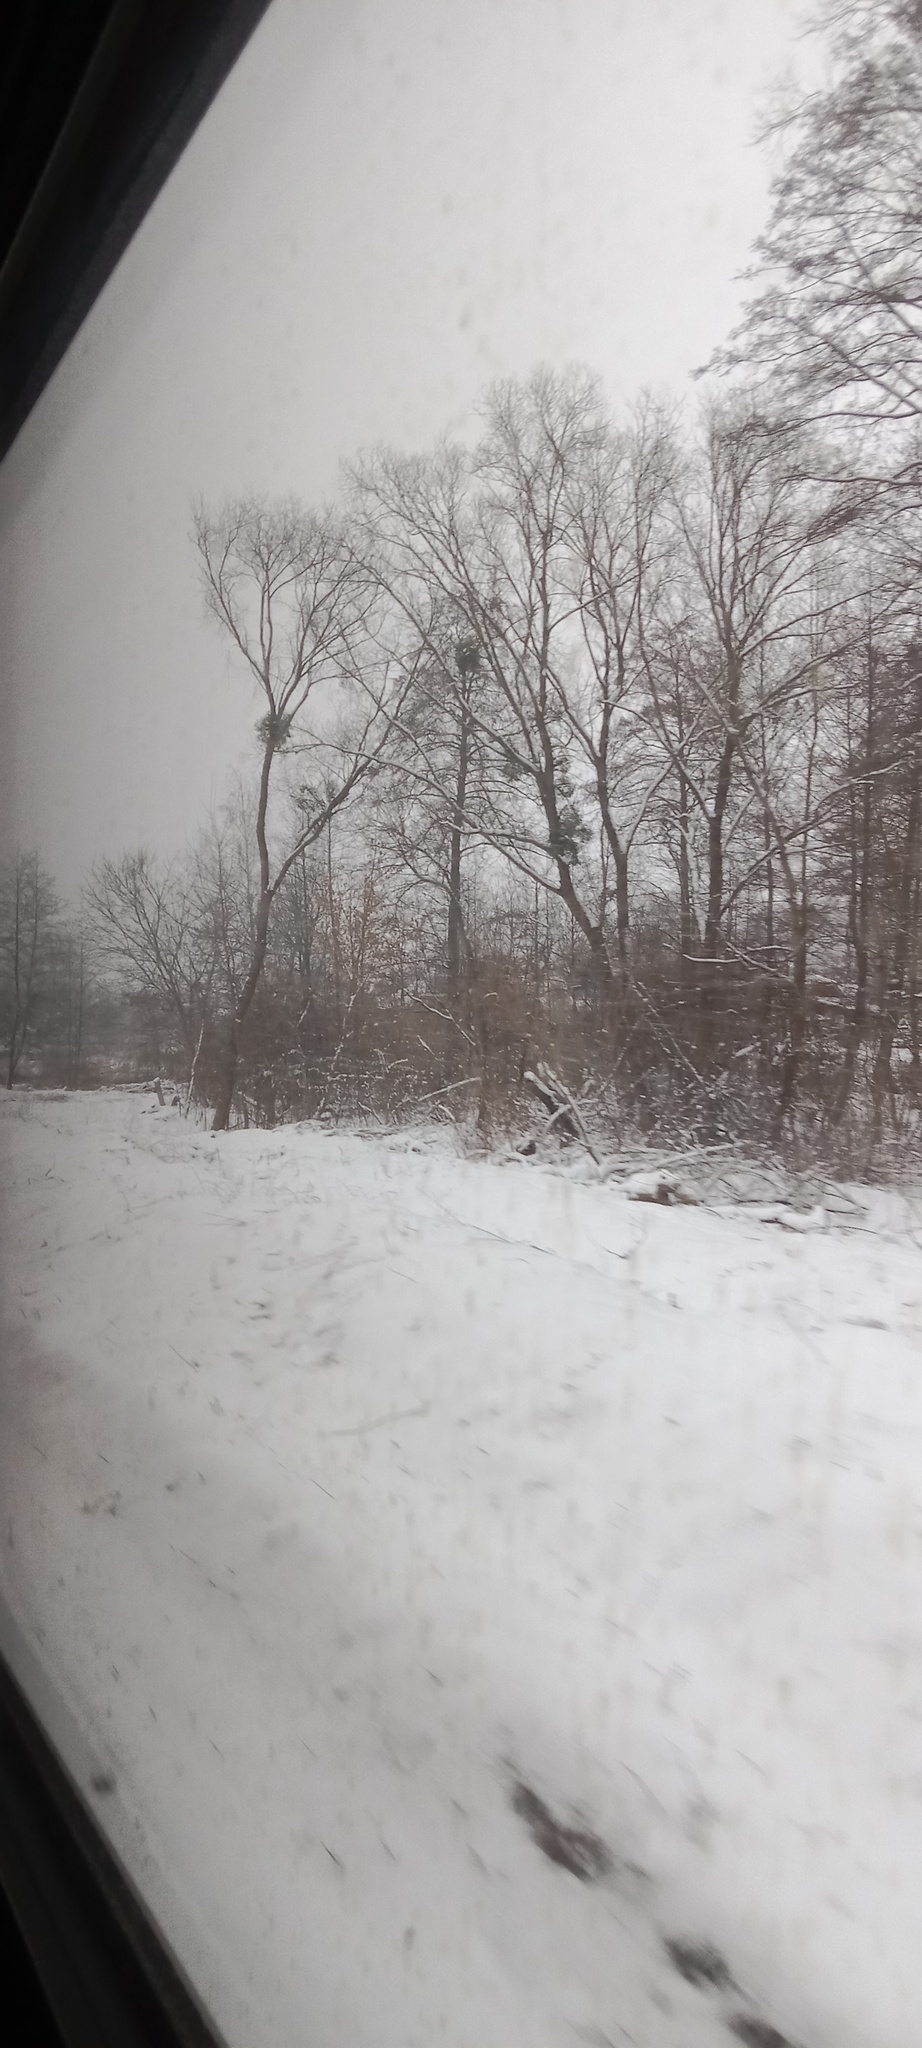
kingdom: Plantae
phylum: Tracheophyta
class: Magnoliopsida
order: Santalales
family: Viscaceae
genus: Viscum
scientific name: Viscum album
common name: Mistletoe
